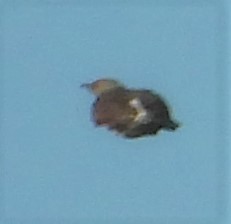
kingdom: Animalia
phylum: Chordata
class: Aves
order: Piciformes
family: Picidae
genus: Colaptes
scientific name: Colaptes auratus
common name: Northern flicker
